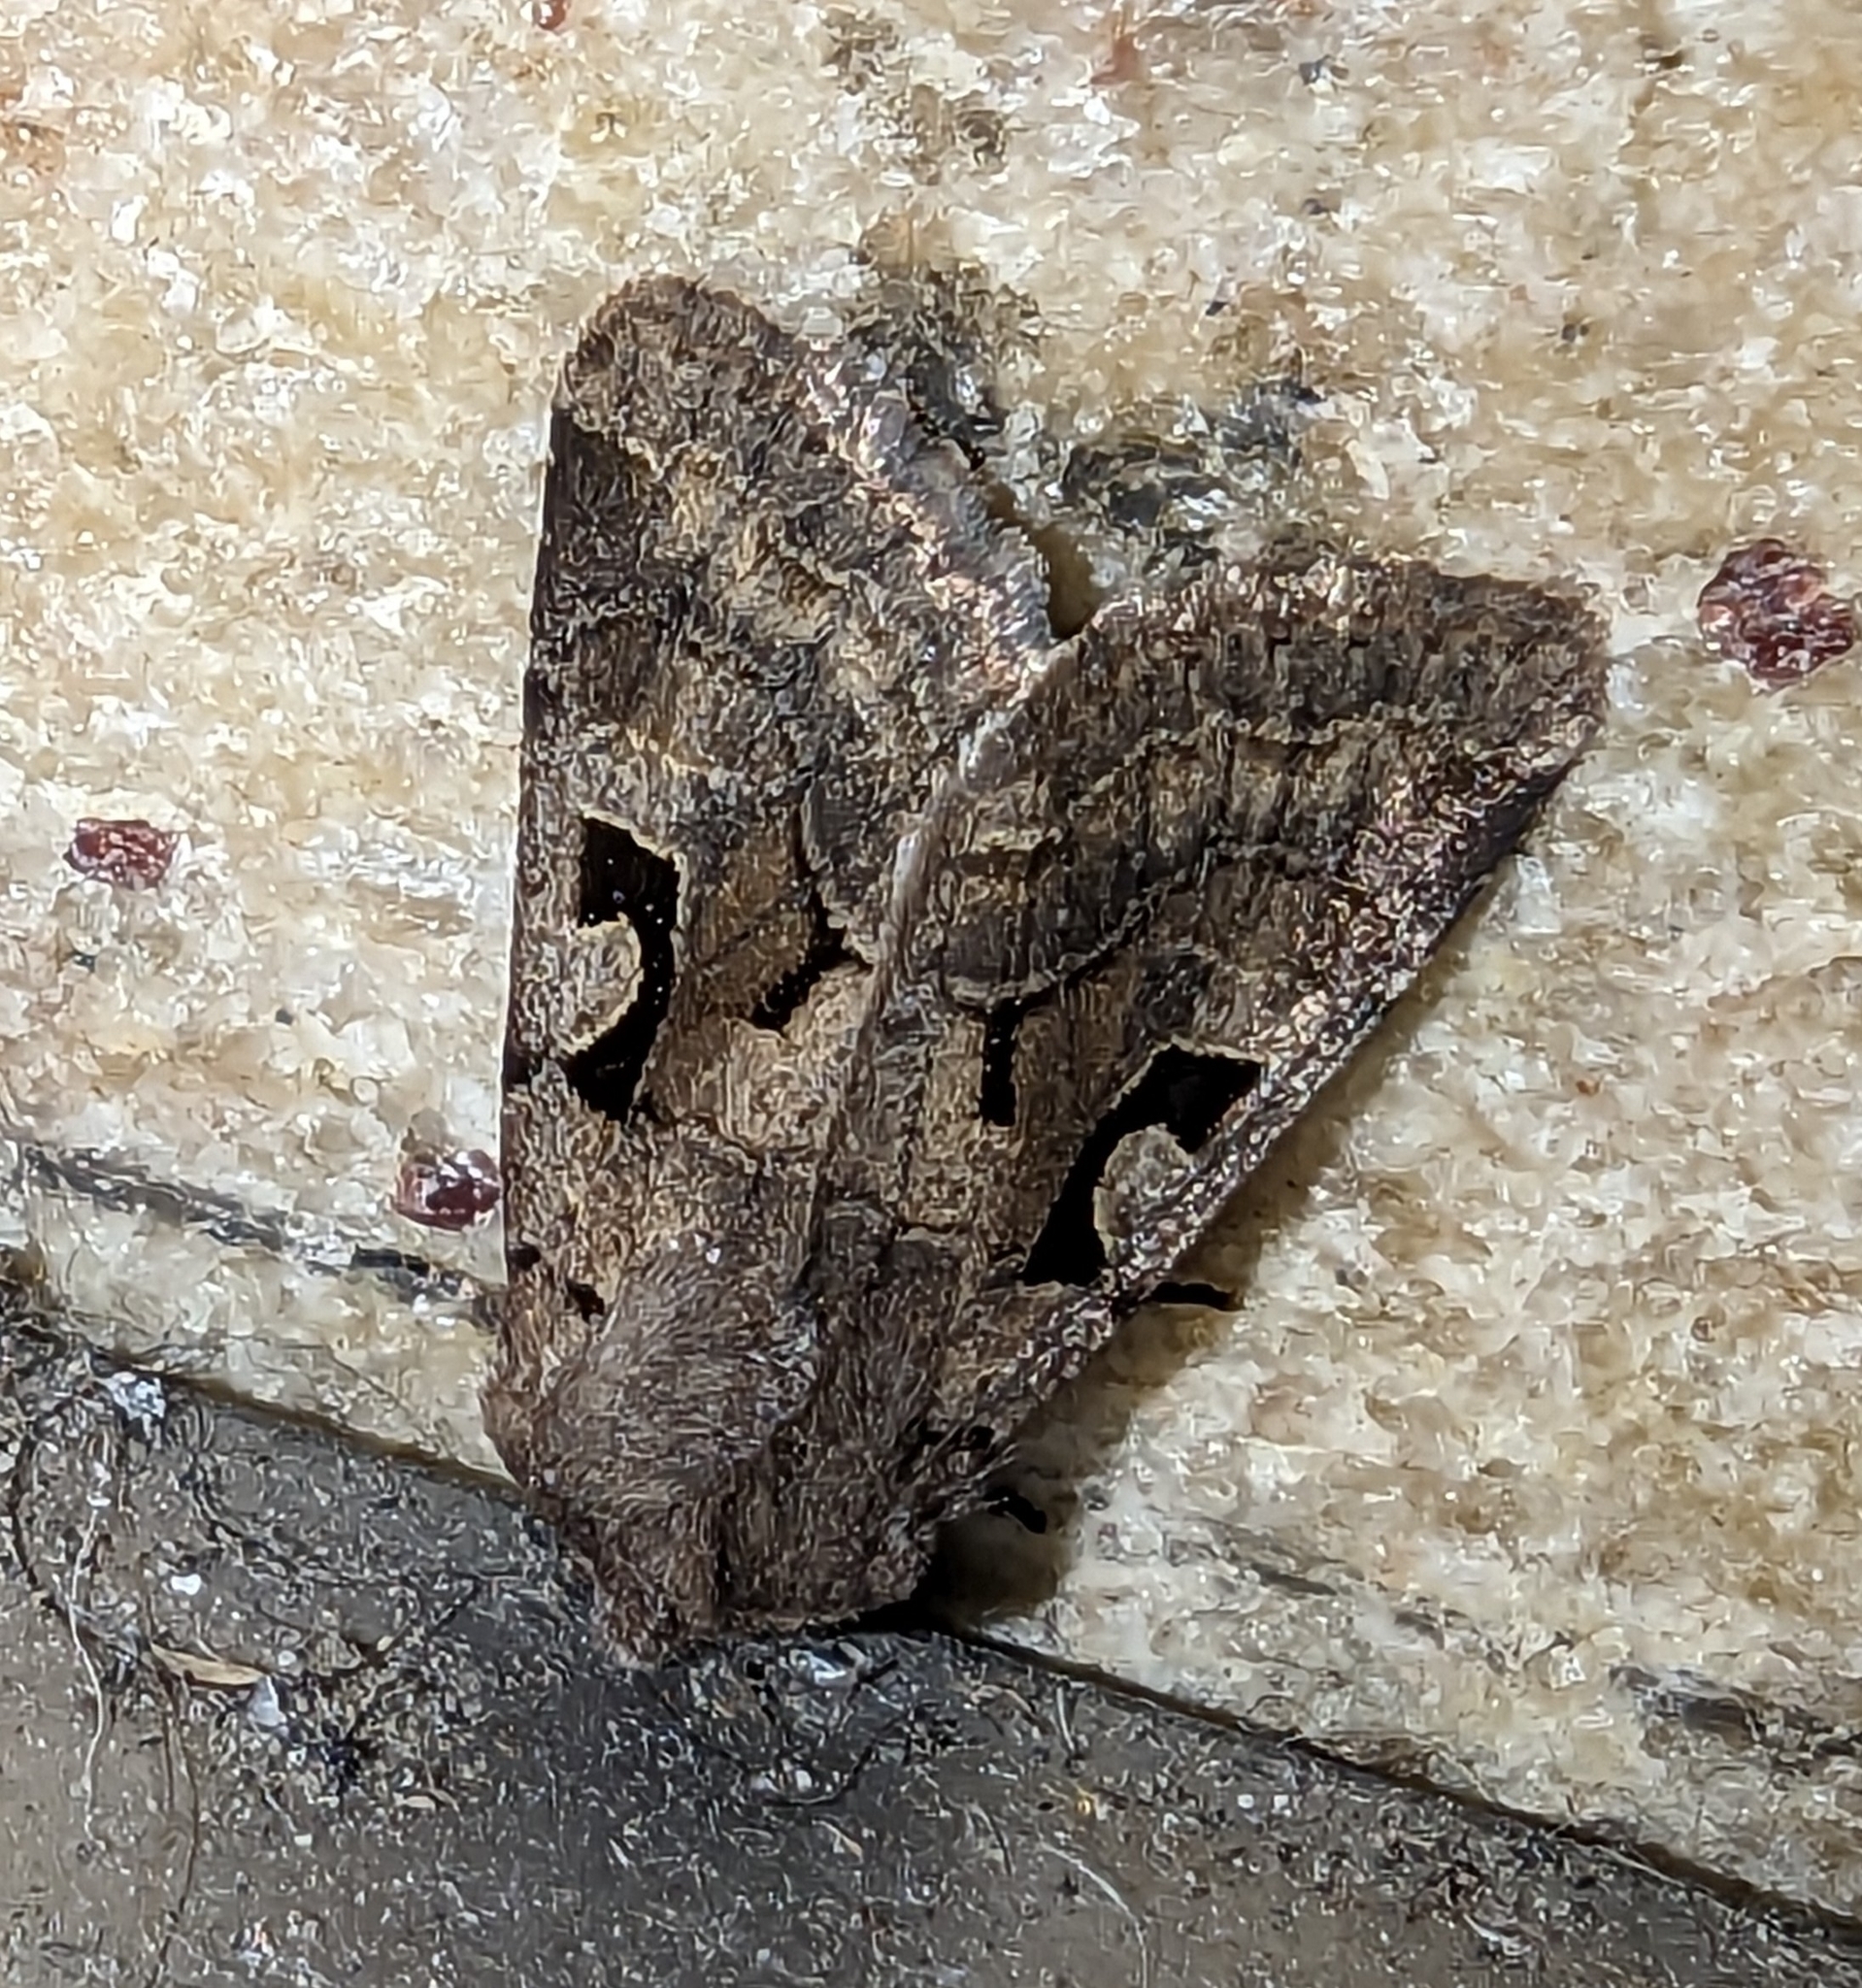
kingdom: Animalia
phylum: Arthropoda
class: Insecta
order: Lepidoptera
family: Noctuidae
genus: Orthosia
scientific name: Orthosia gothica
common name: Hebrew character
